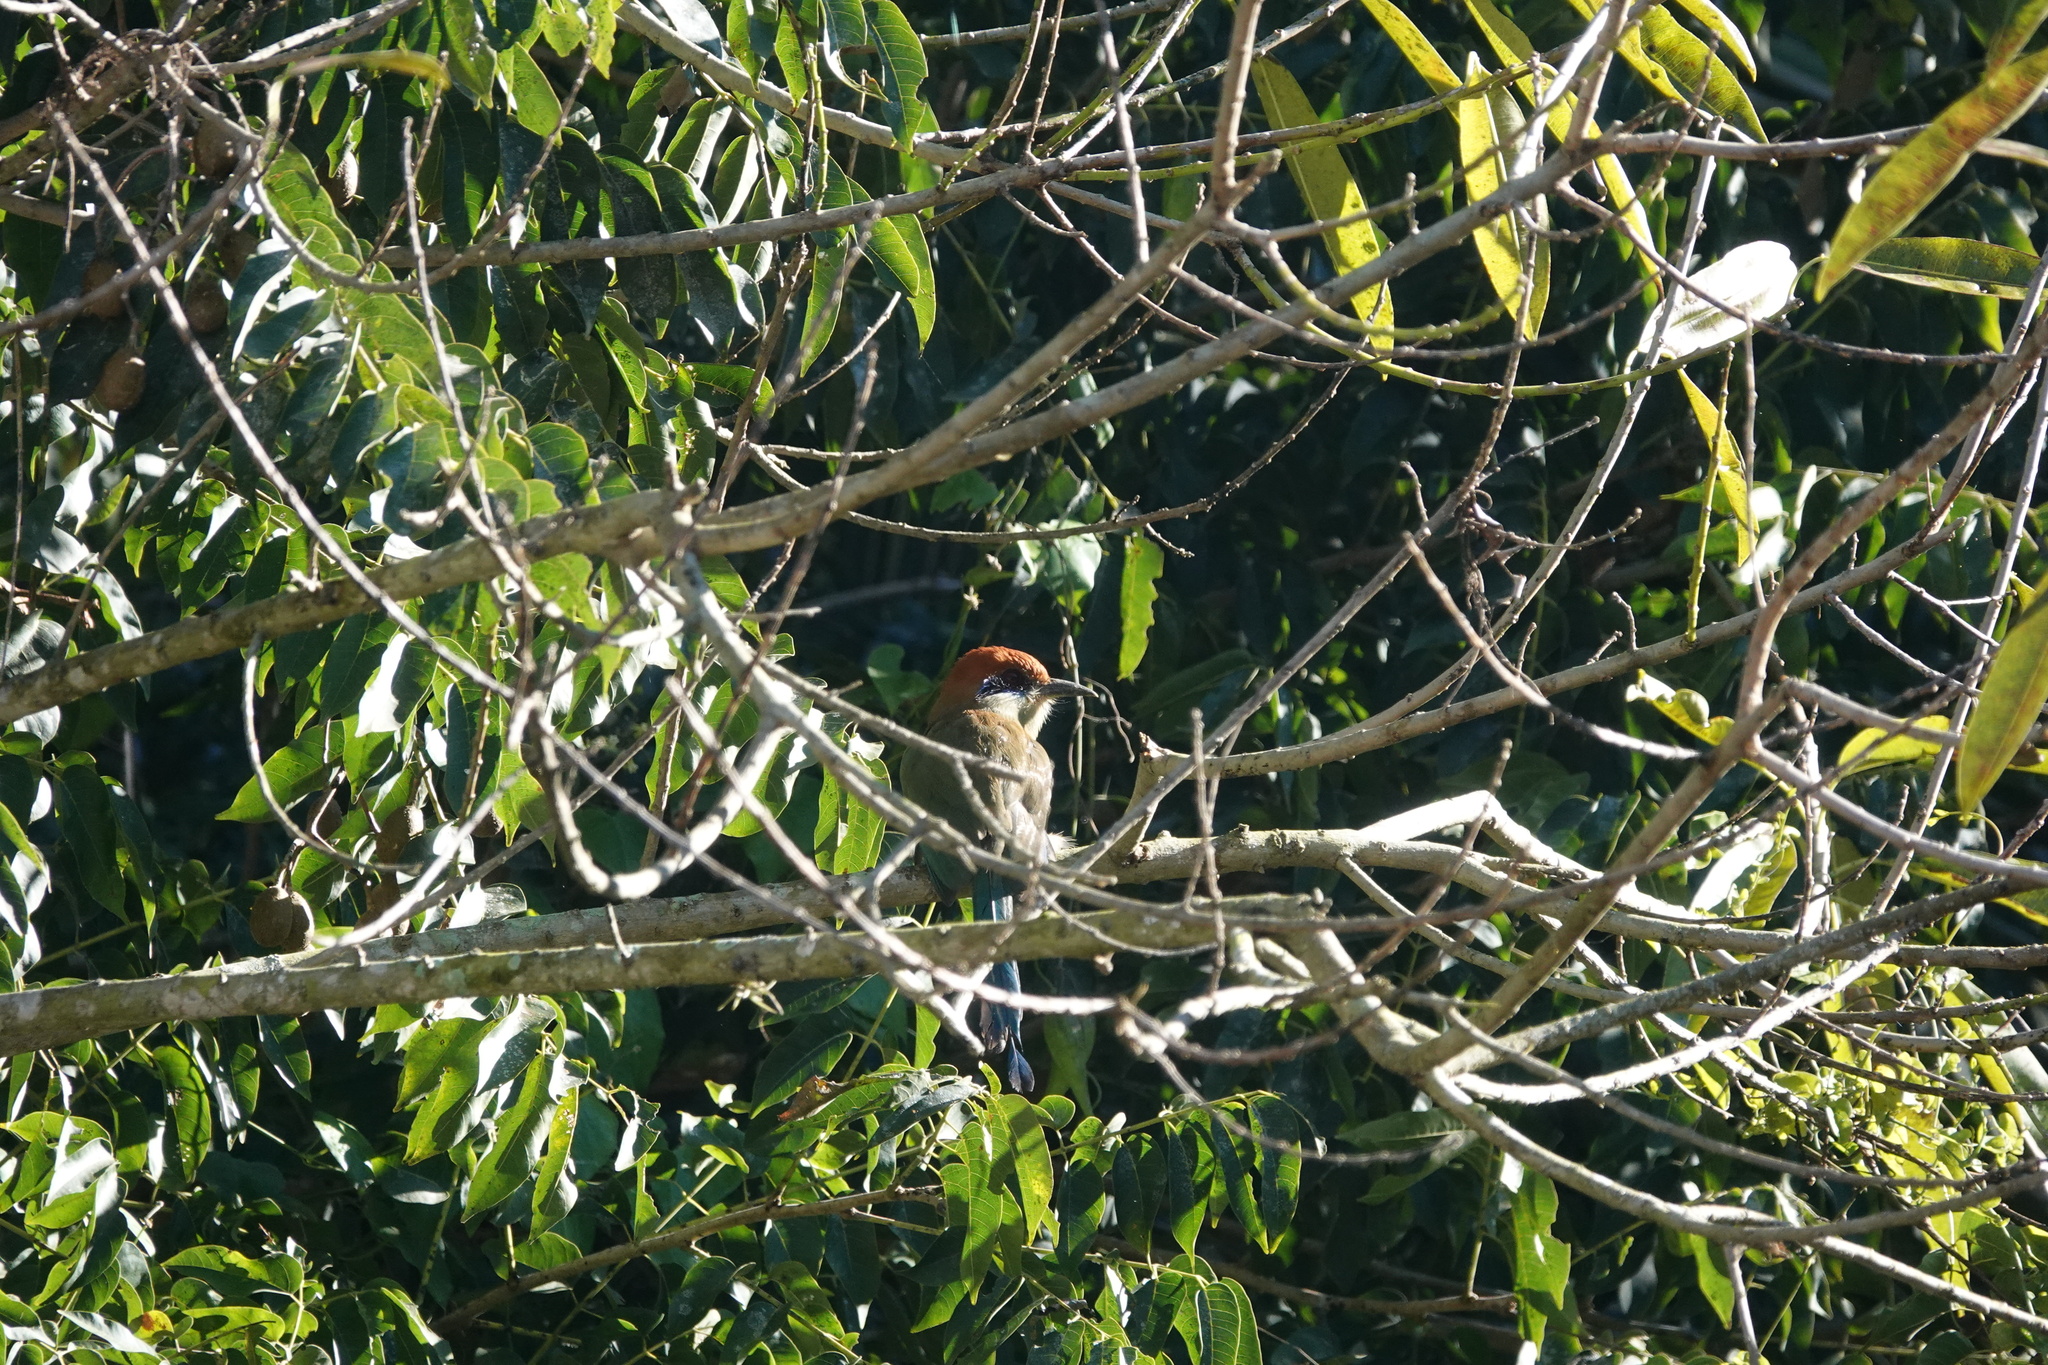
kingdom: Animalia
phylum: Chordata
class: Aves
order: Coraciiformes
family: Momotidae
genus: Momotus
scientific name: Momotus mexicanus
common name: Russet-crowned motmot
